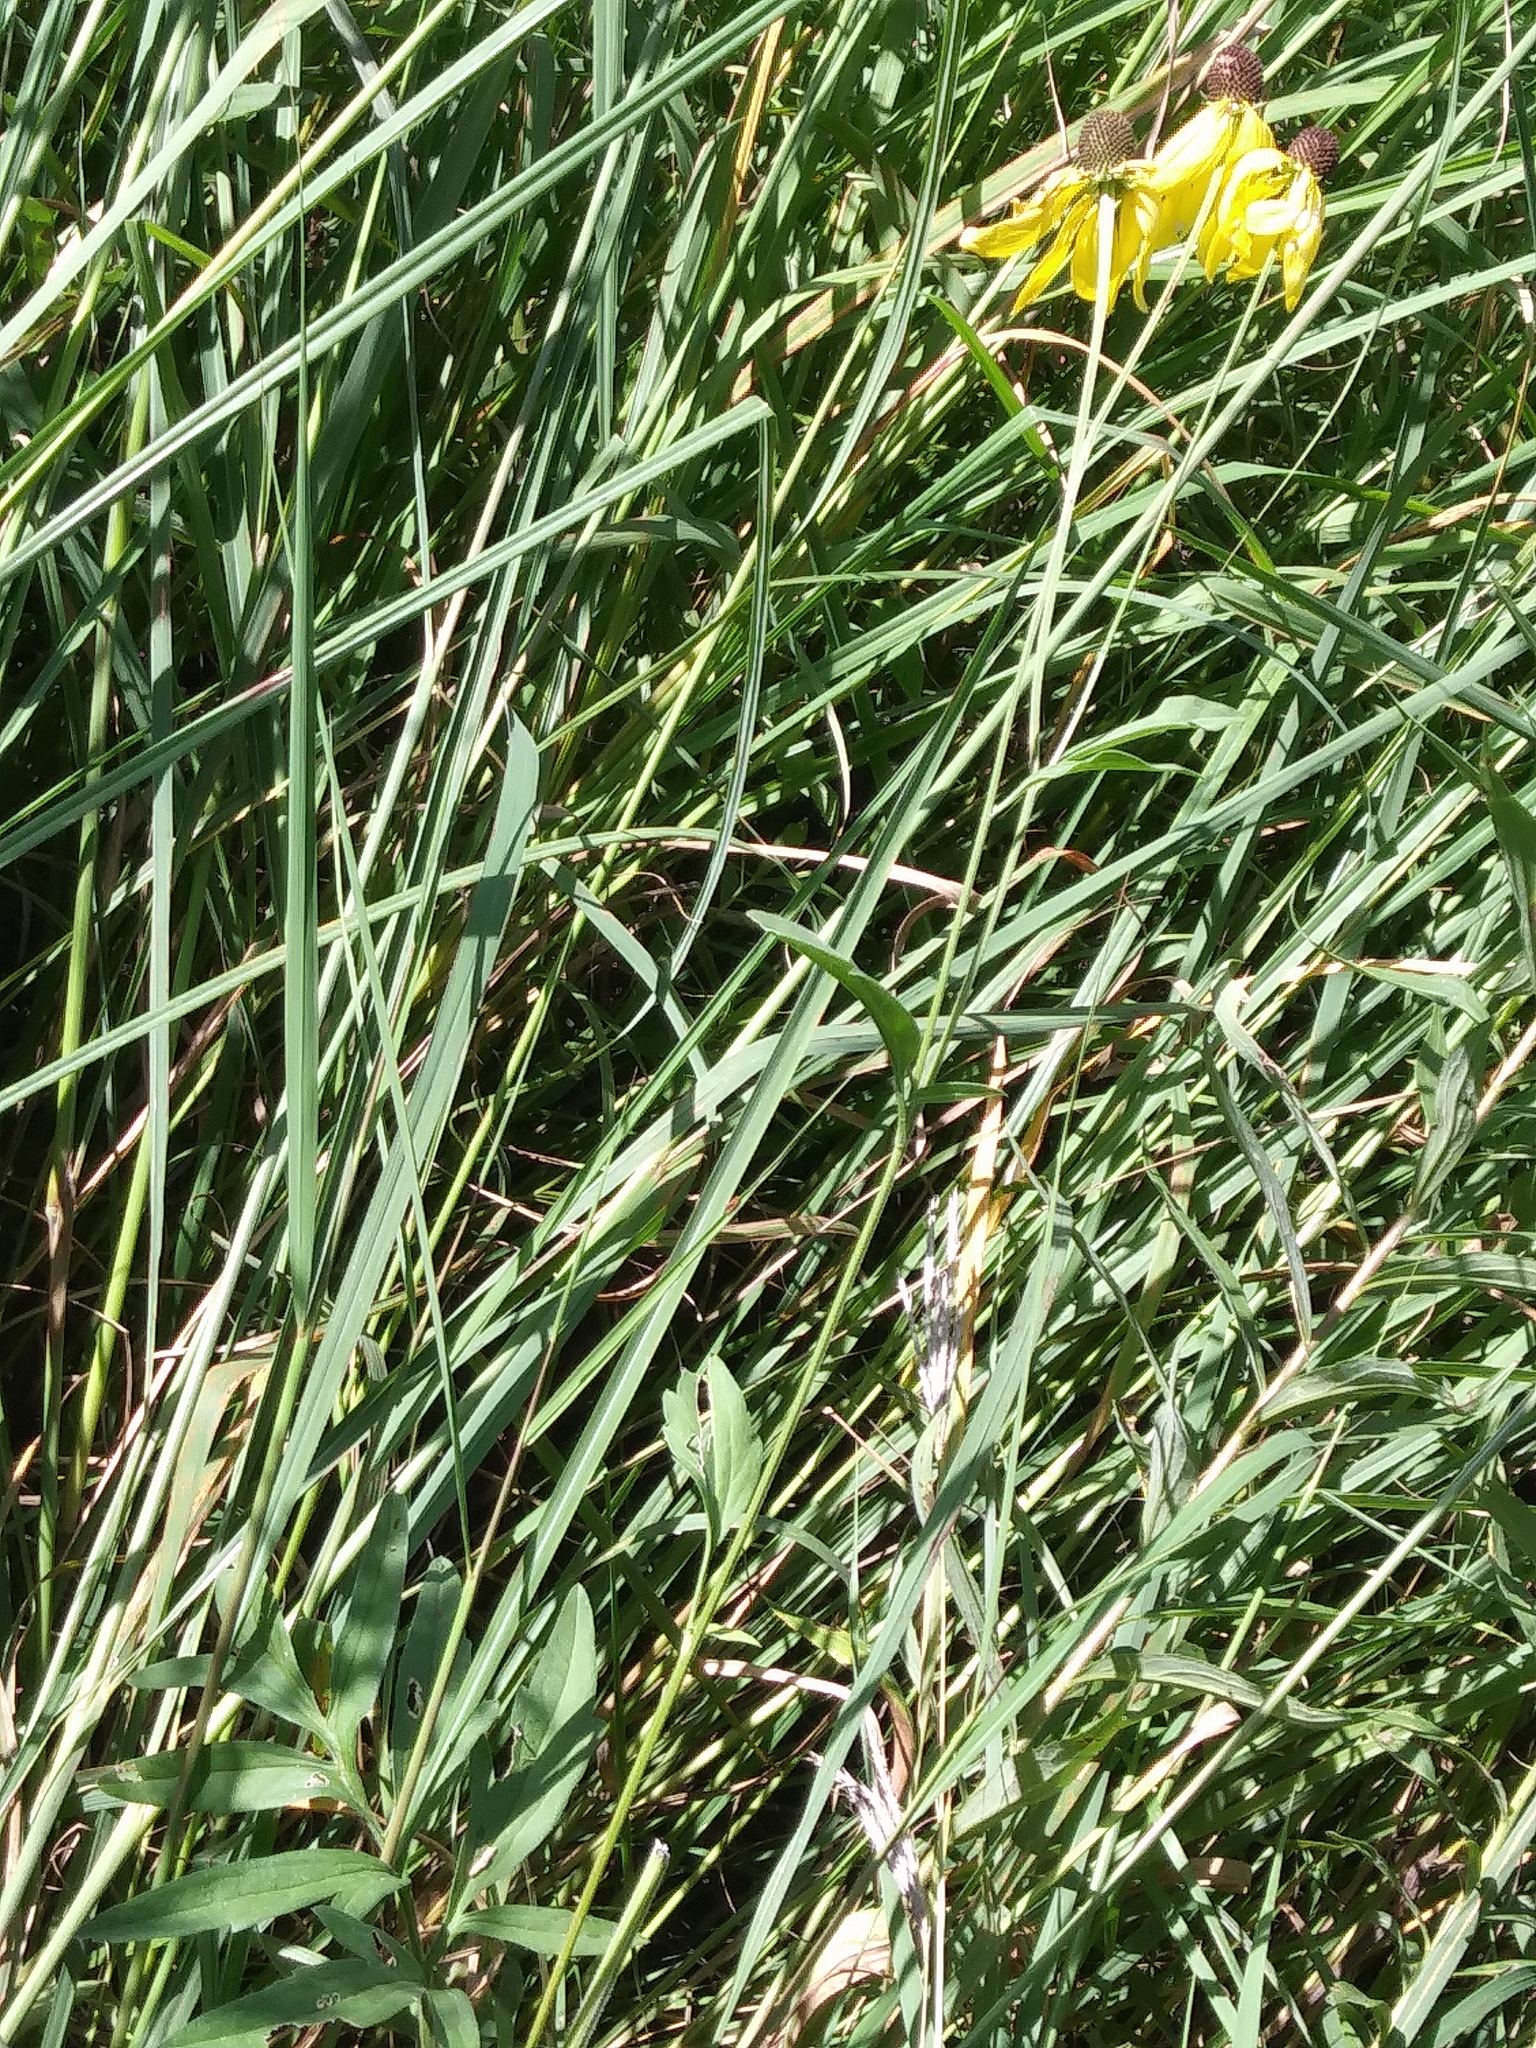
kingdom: Plantae
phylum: Tracheophyta
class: Magnoliopsida
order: Asterales
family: Asteraceae
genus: Ratibida
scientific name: Ratibida pinnata
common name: Drooping prairie-coneflower
